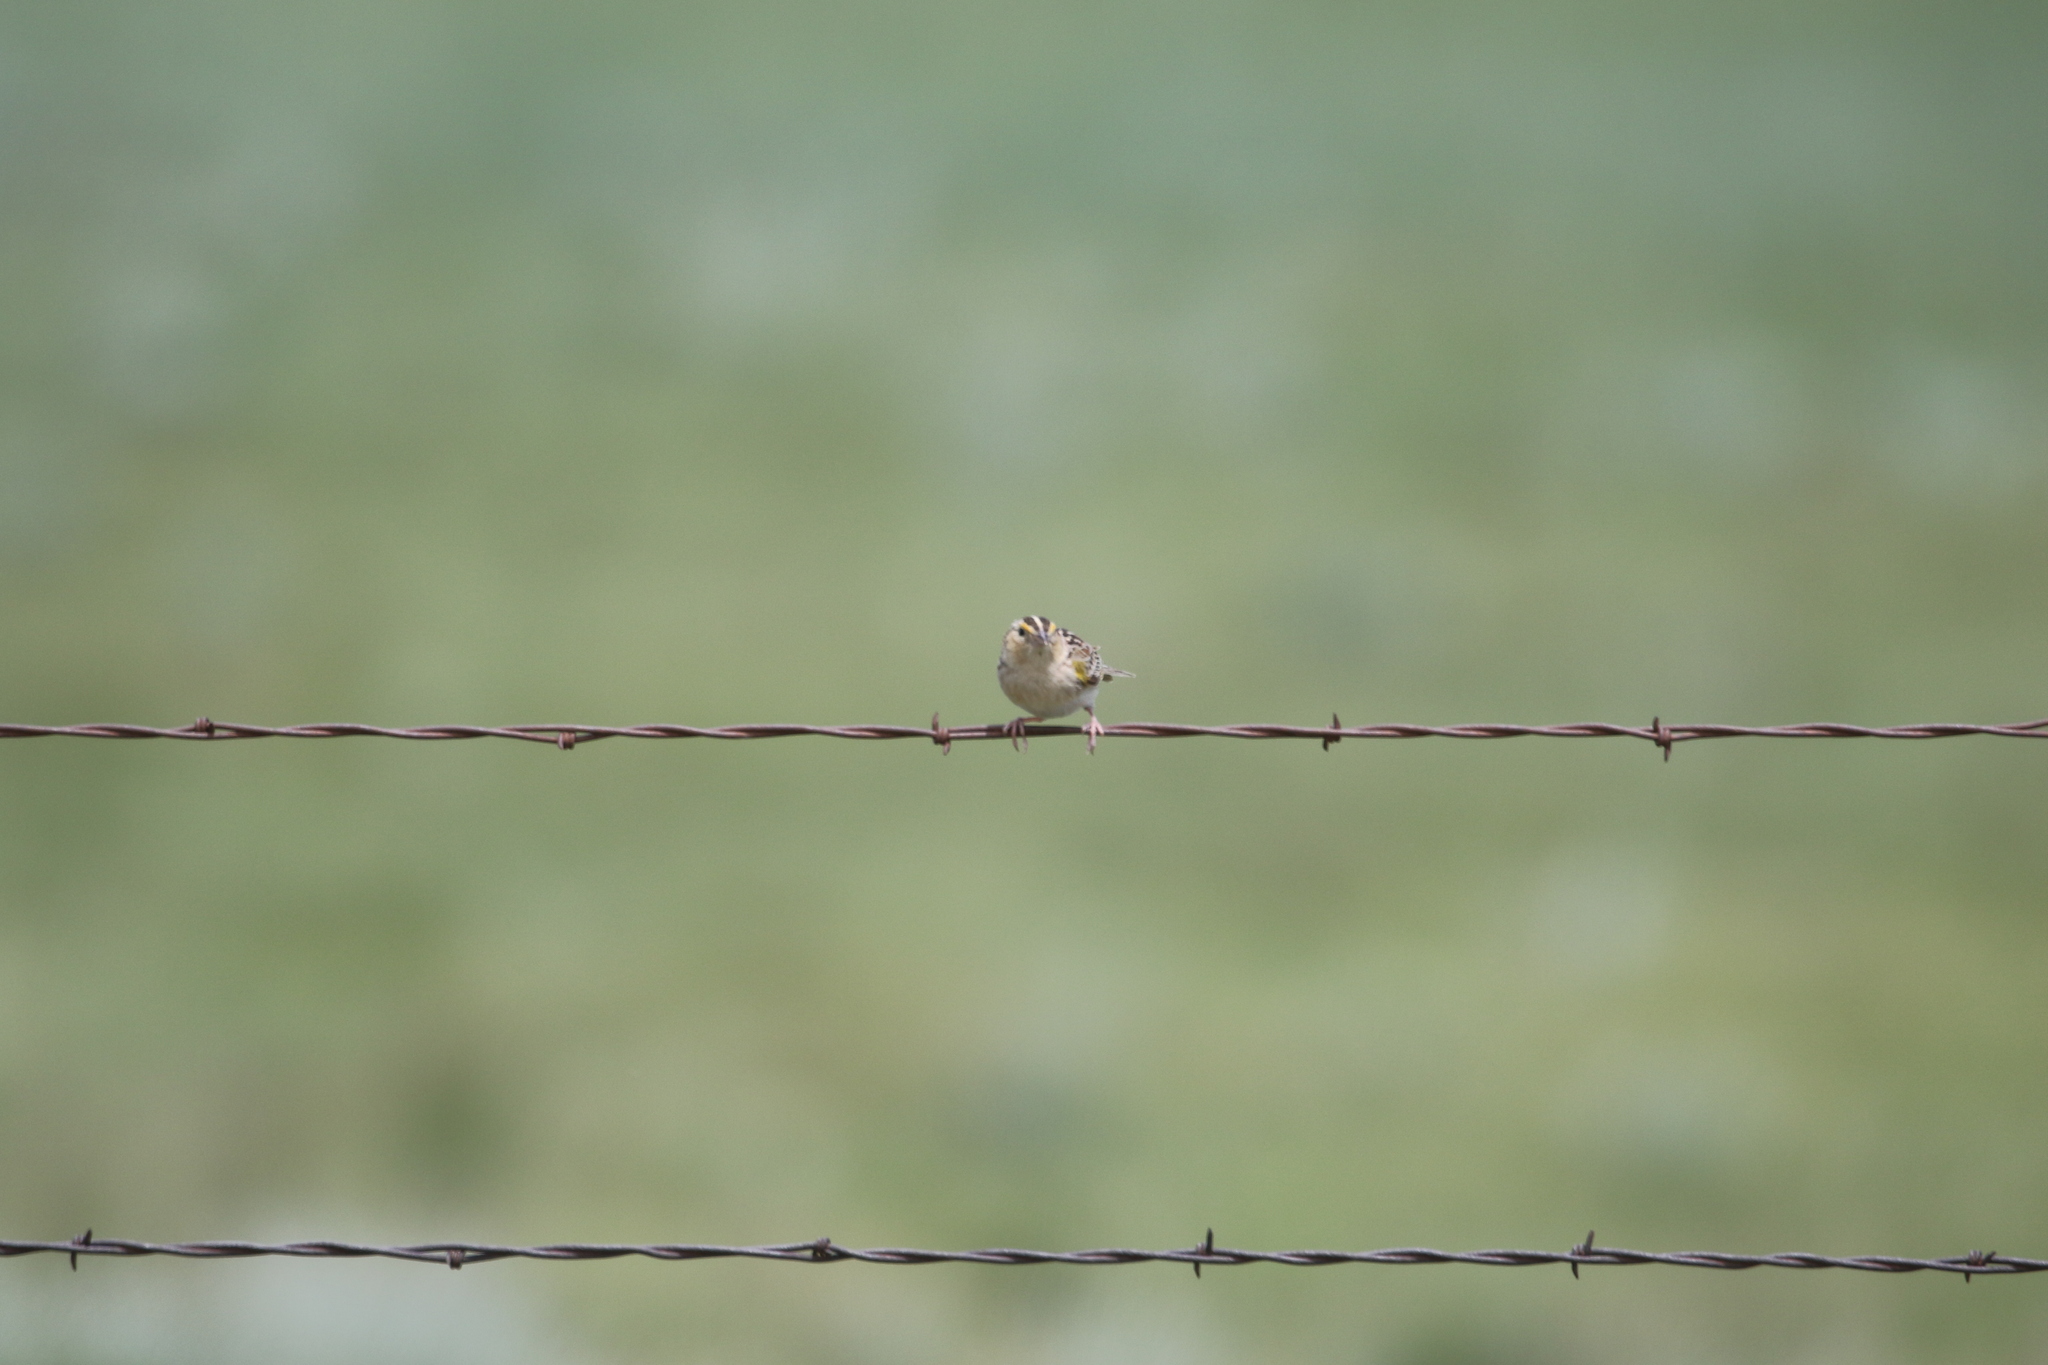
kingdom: Animalia
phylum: Chordata
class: Aves
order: Passeriformes
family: Passerellidae
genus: Ammodramus
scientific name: Ammodramus savannarum
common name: Grasshopper sparrow
